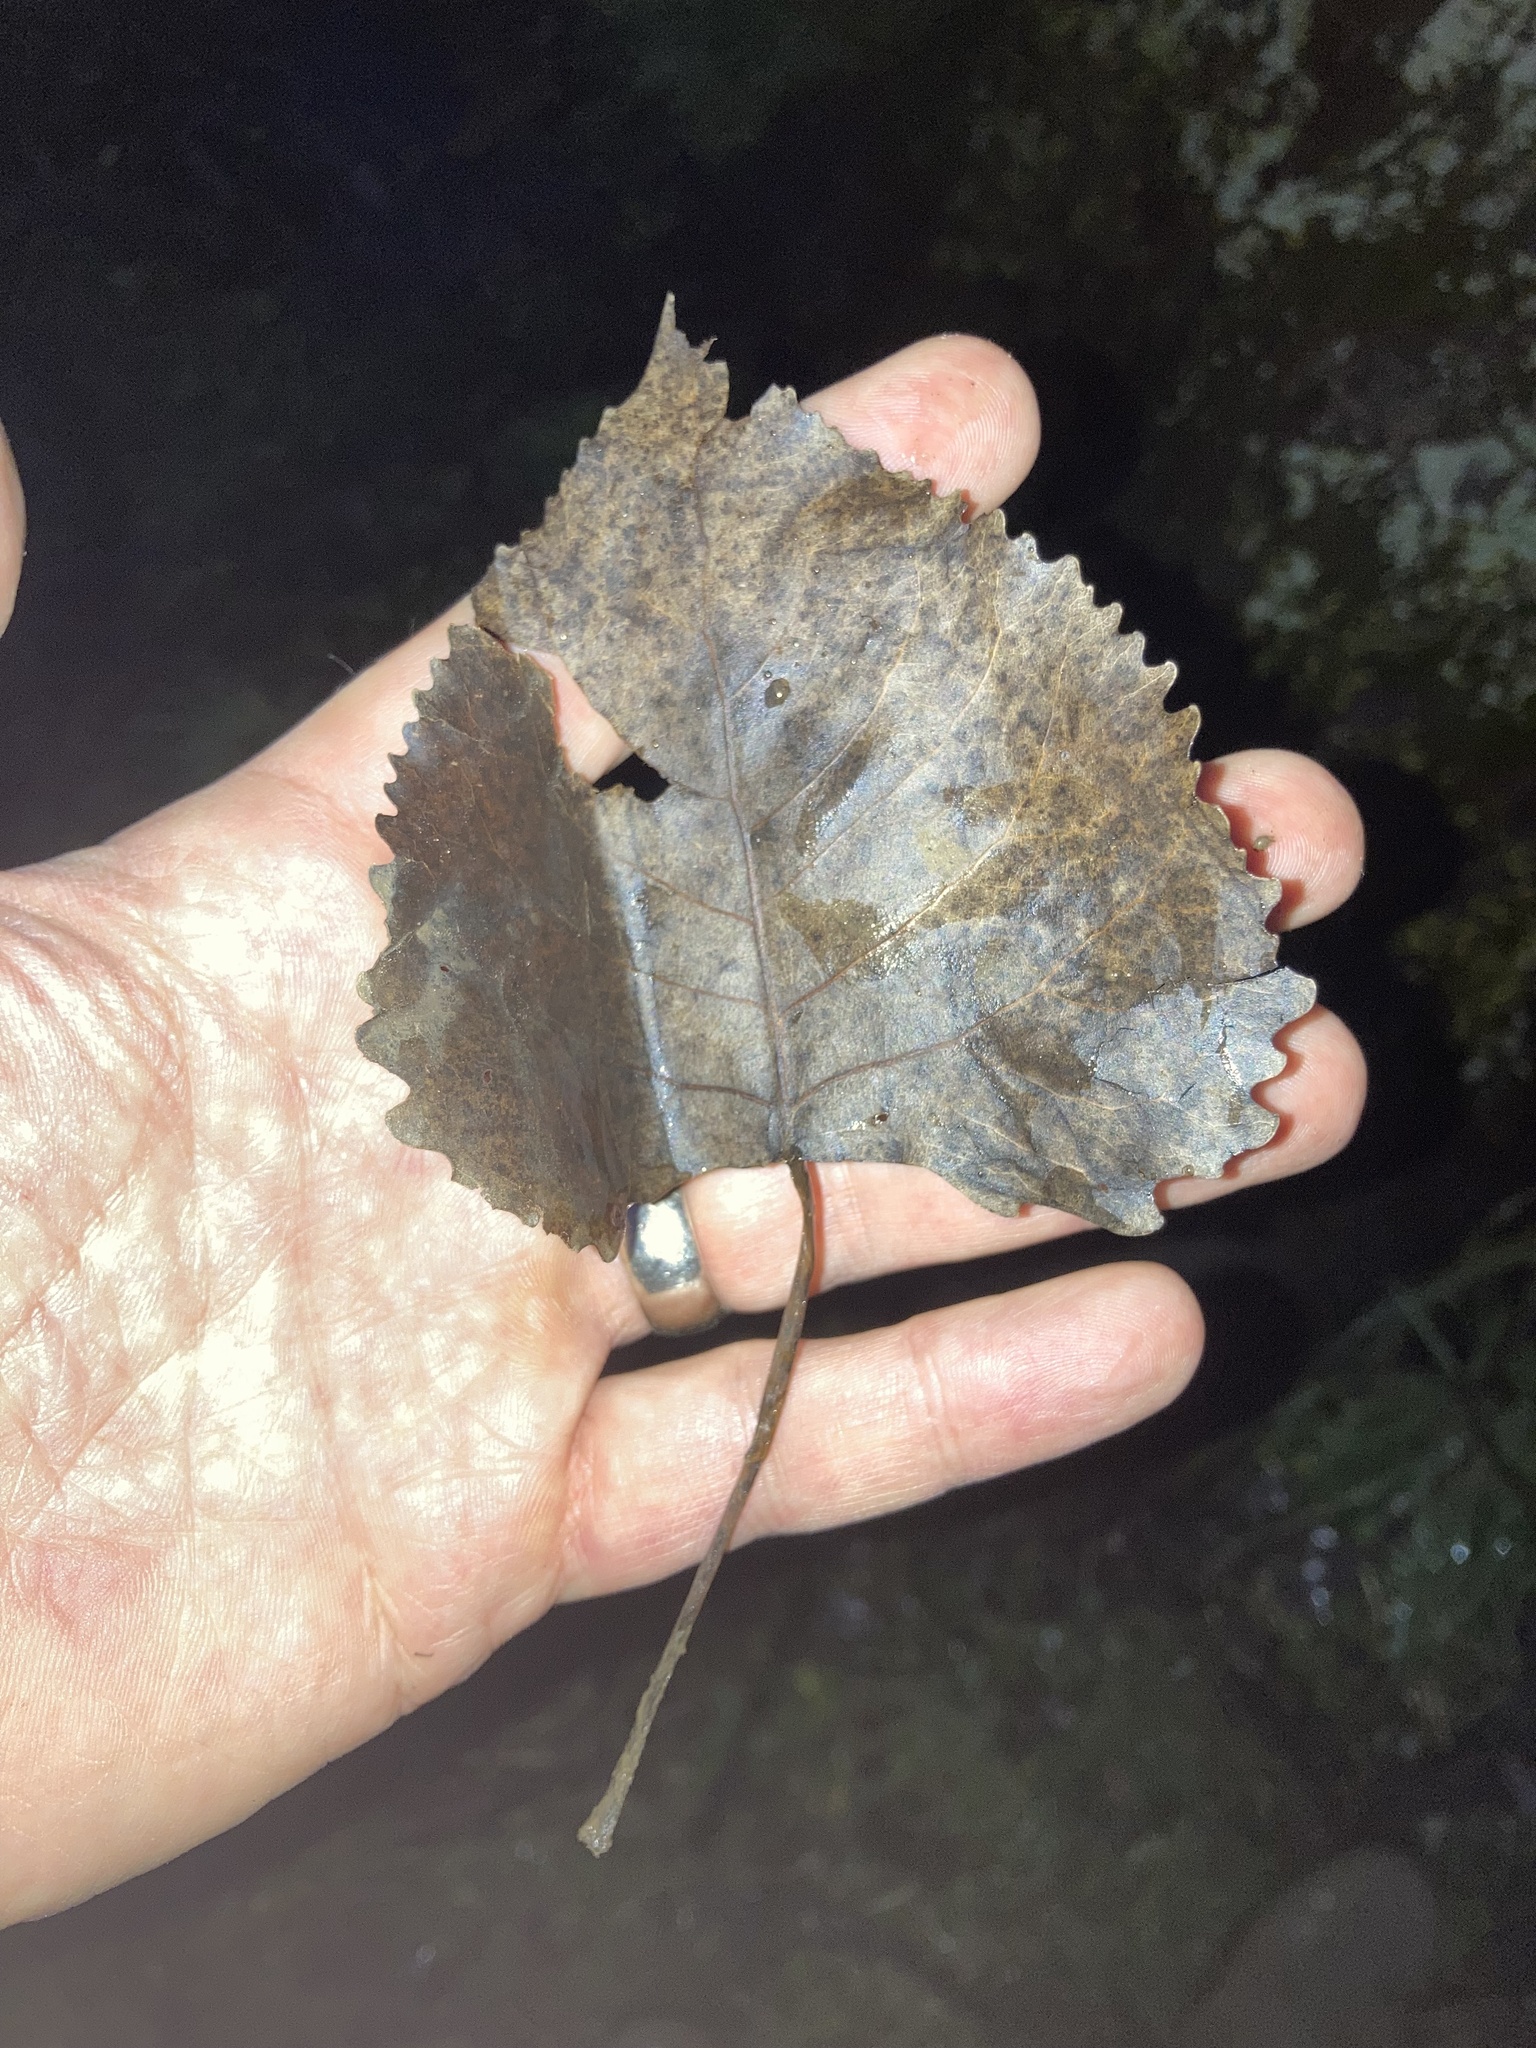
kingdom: Plantae
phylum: Tracheophyta
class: Magnoliopsida
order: Malpighiales
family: Salicaceae
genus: Populus
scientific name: Populus deltoides
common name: Eastern cottonwood
